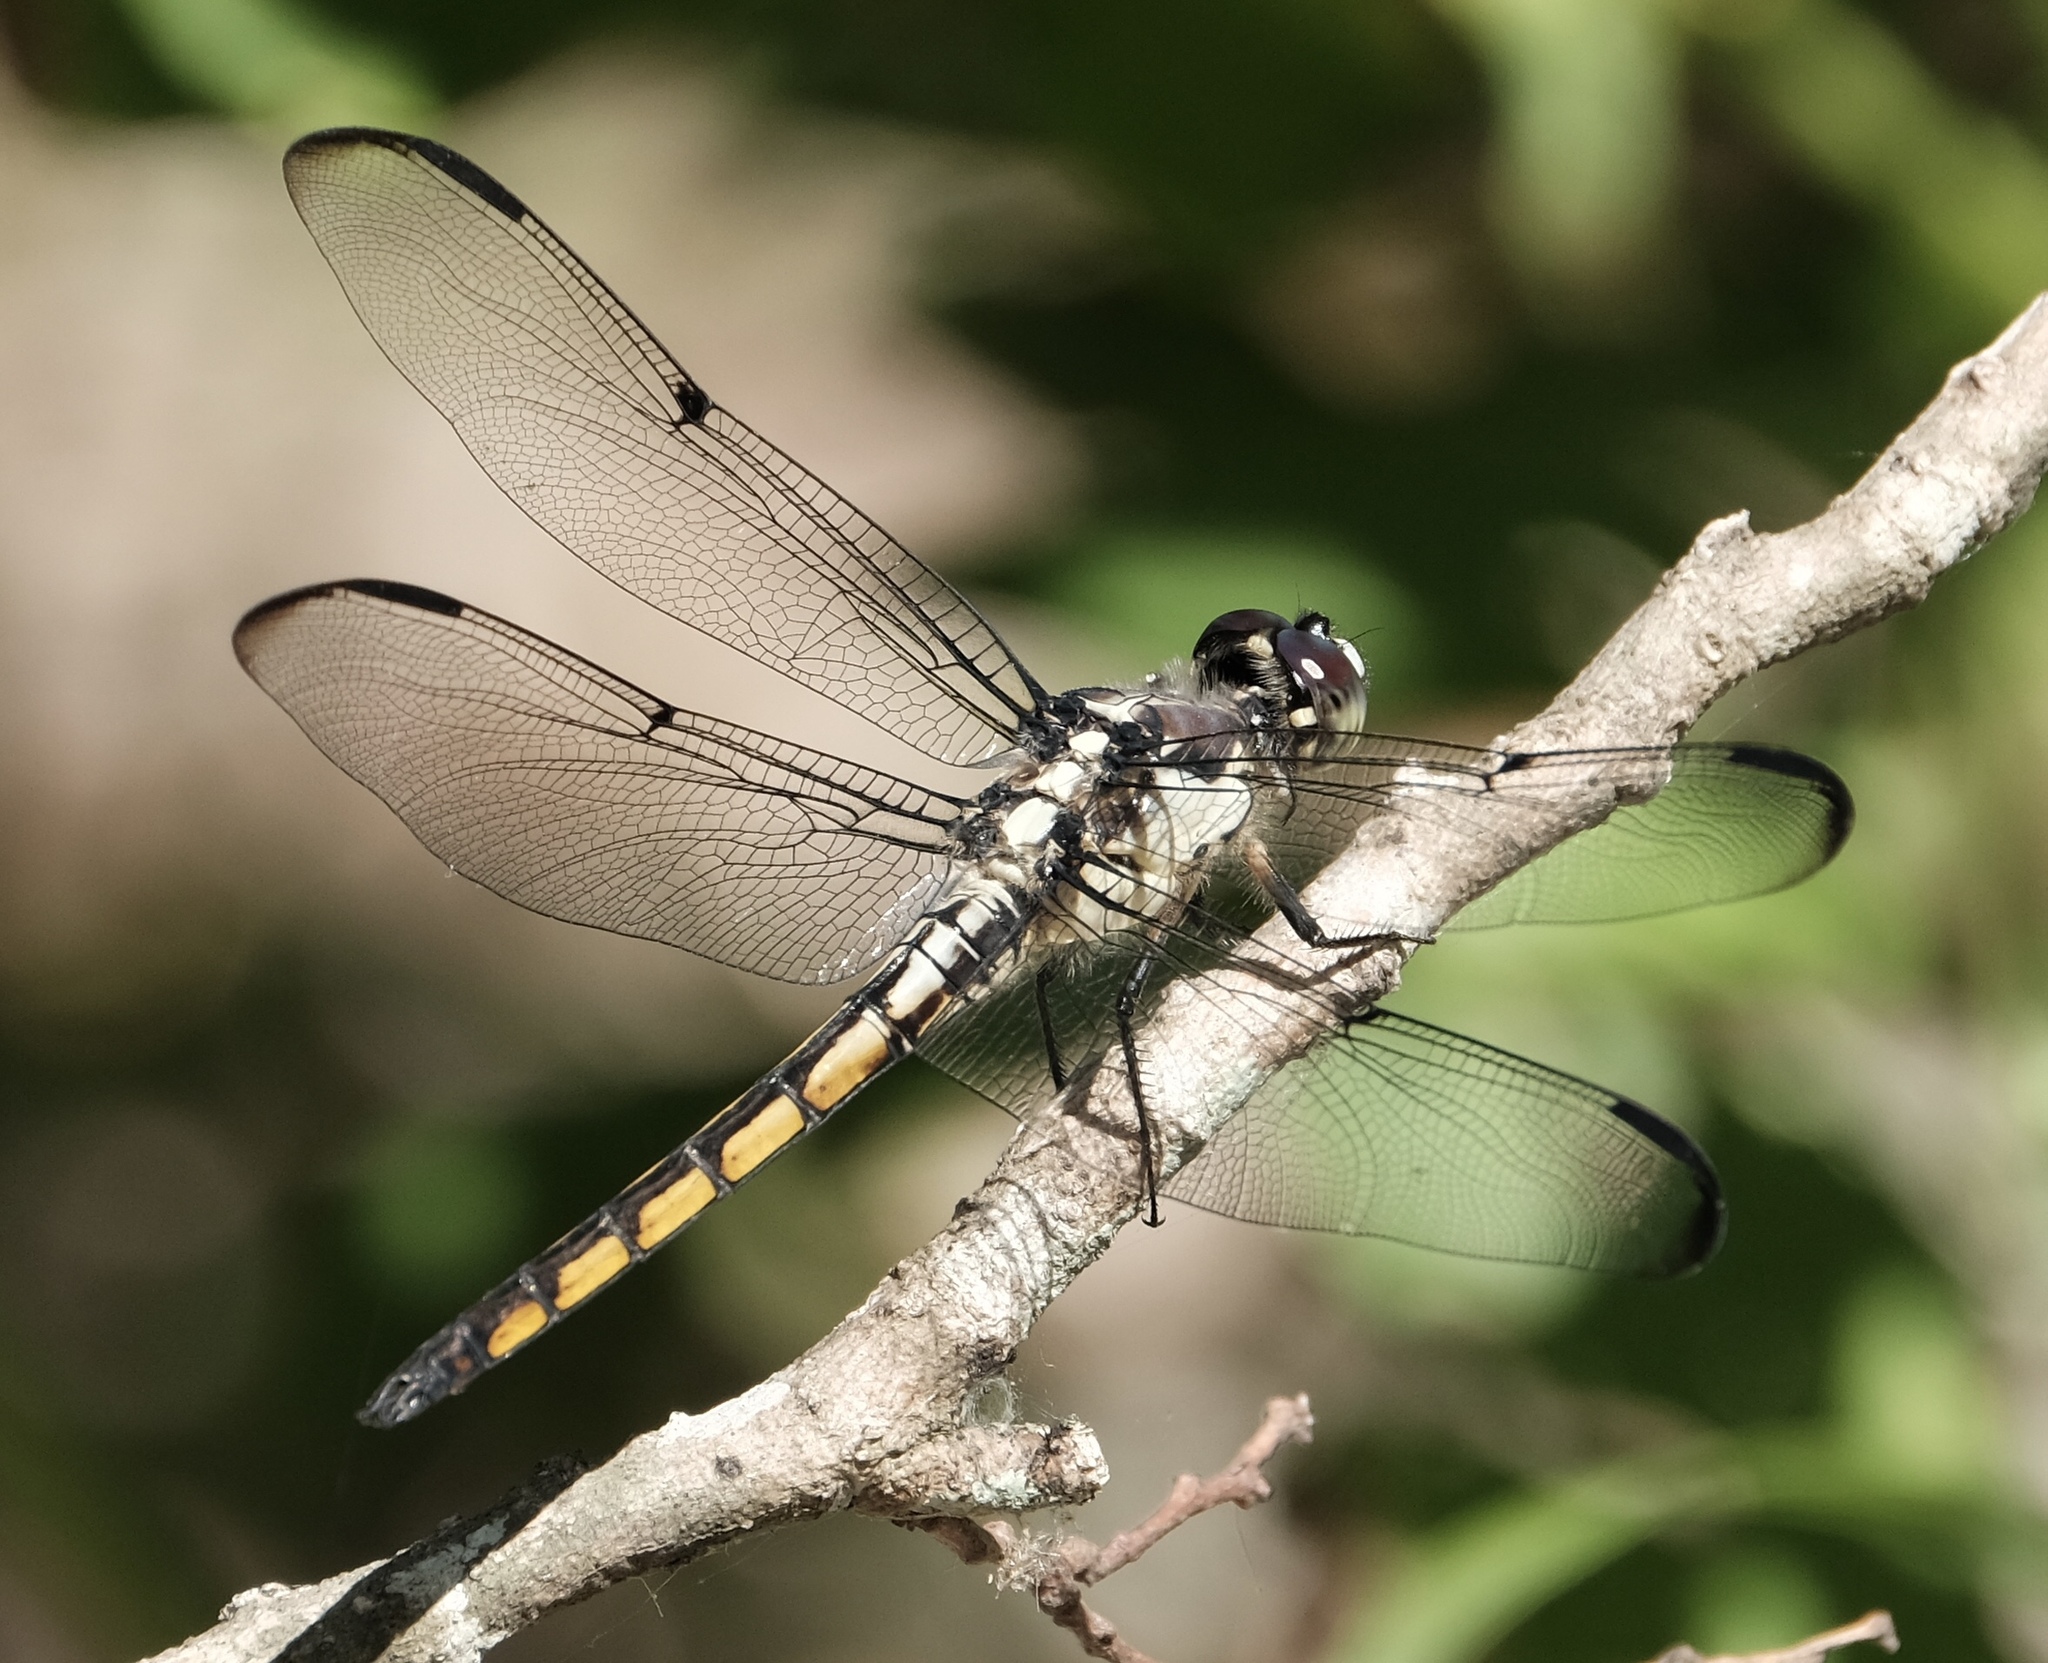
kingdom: Animalia
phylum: Arthropoda
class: Insecta
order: Odonata
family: Libellulidae
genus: Libellula
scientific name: Libellula vibrans
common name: Great blue skimmer
